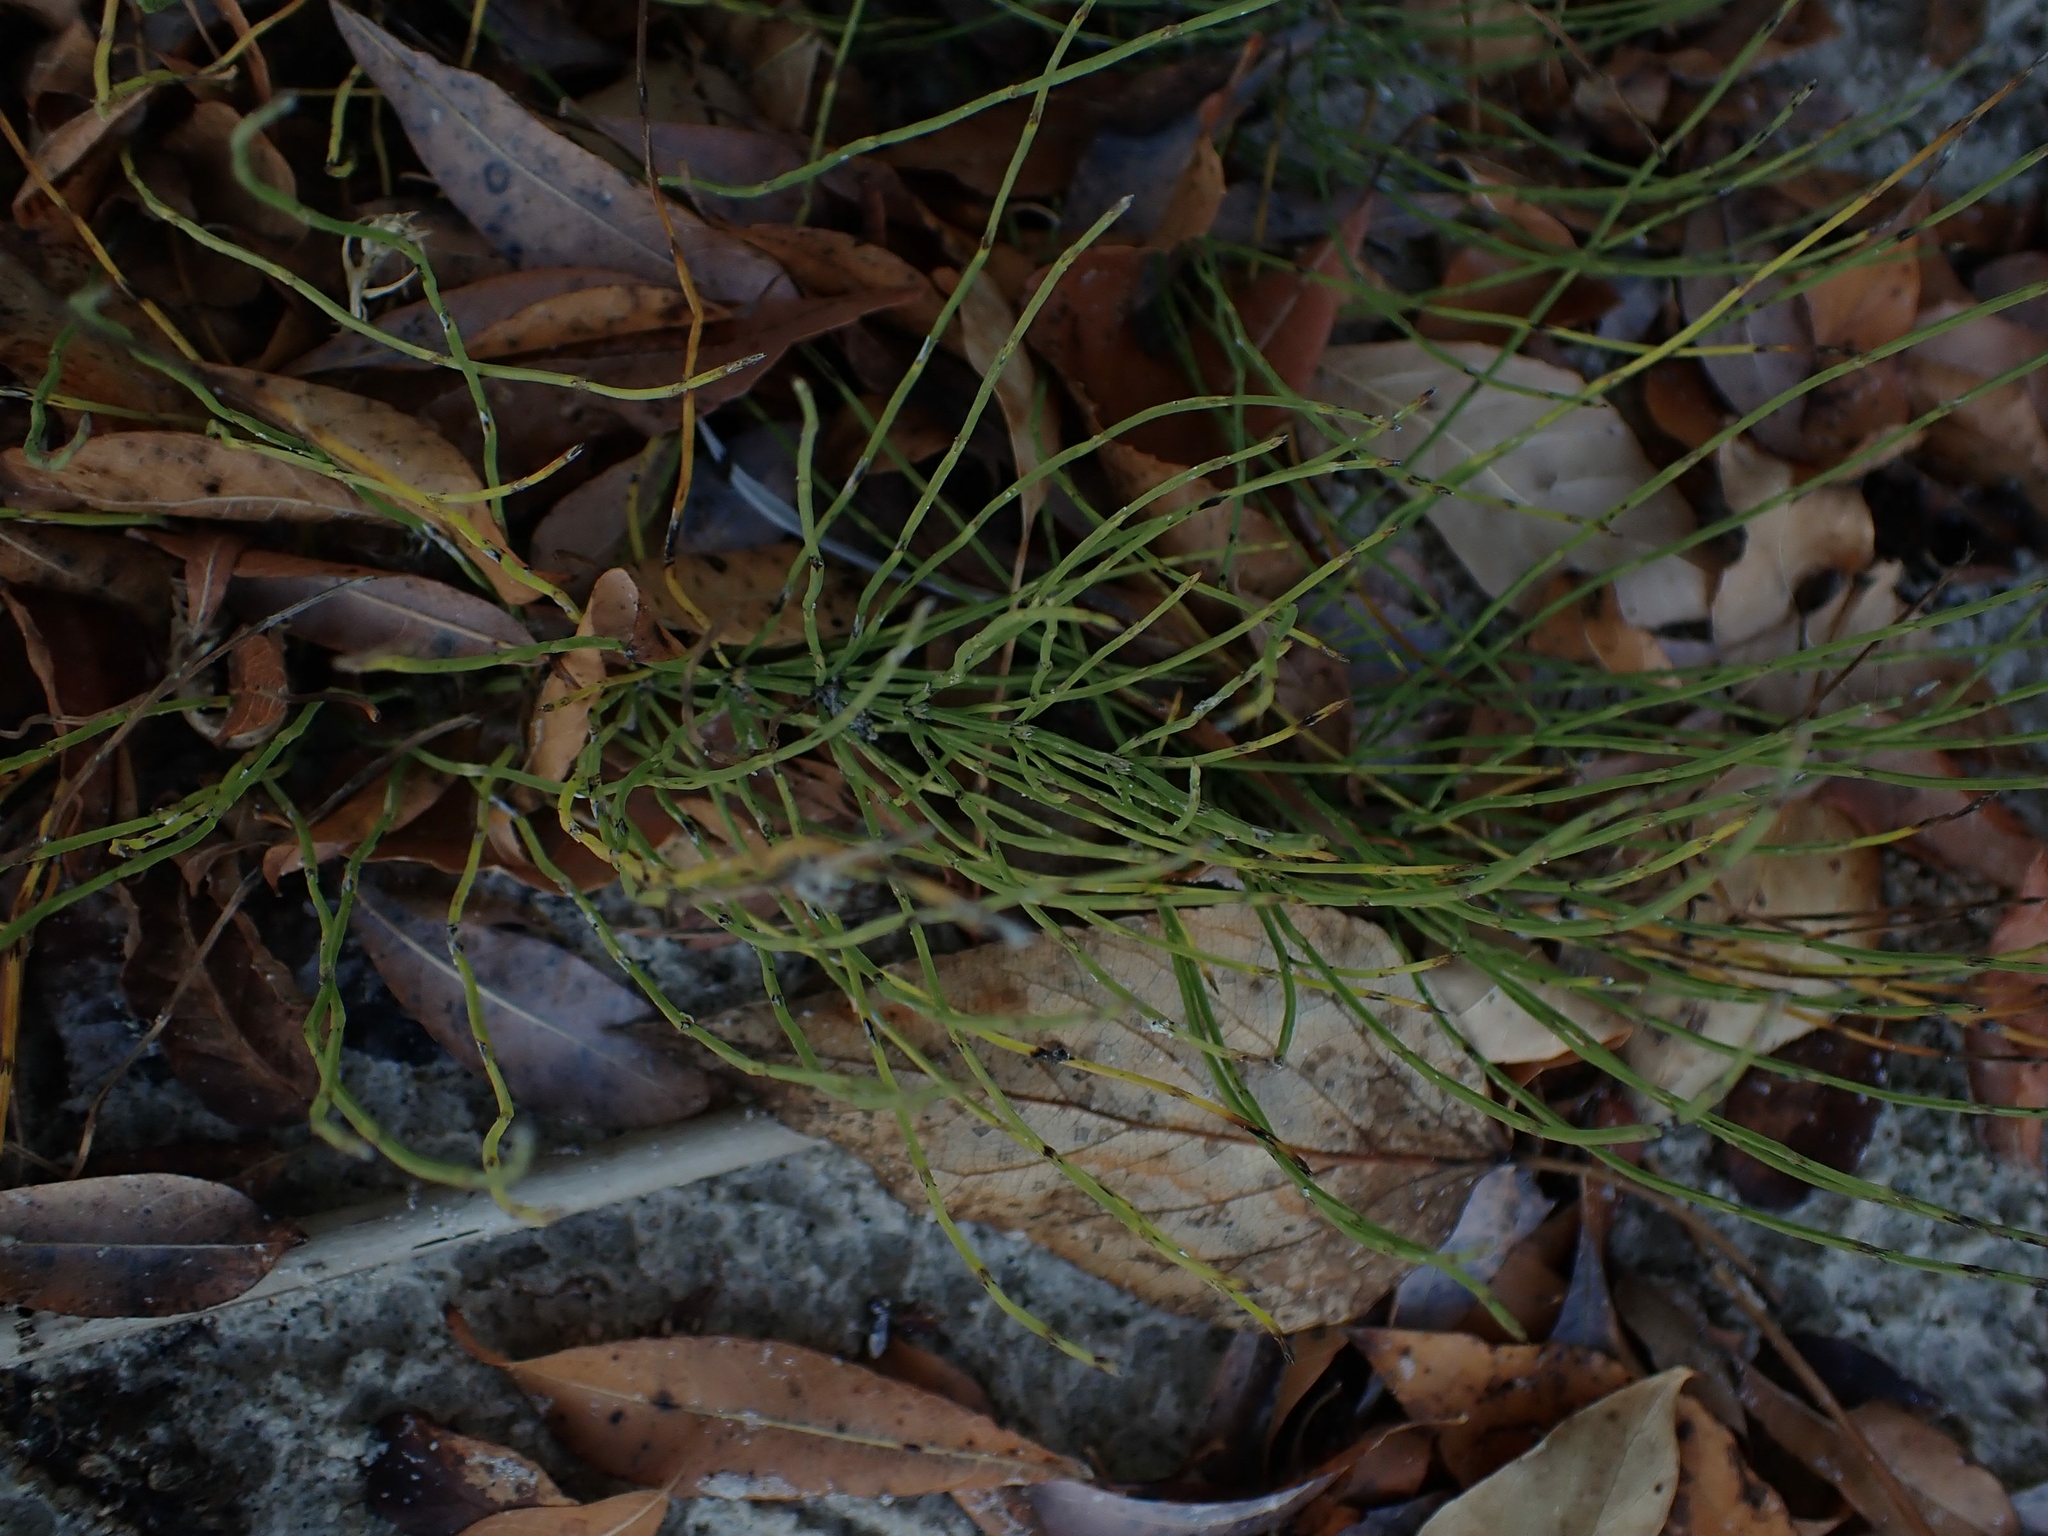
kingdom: Plantae
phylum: Tracheophyta
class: Polypodiopsida
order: Equisetales
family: Equisetaceae
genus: Equisetum
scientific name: Equisetum arvense
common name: Field horsetail
